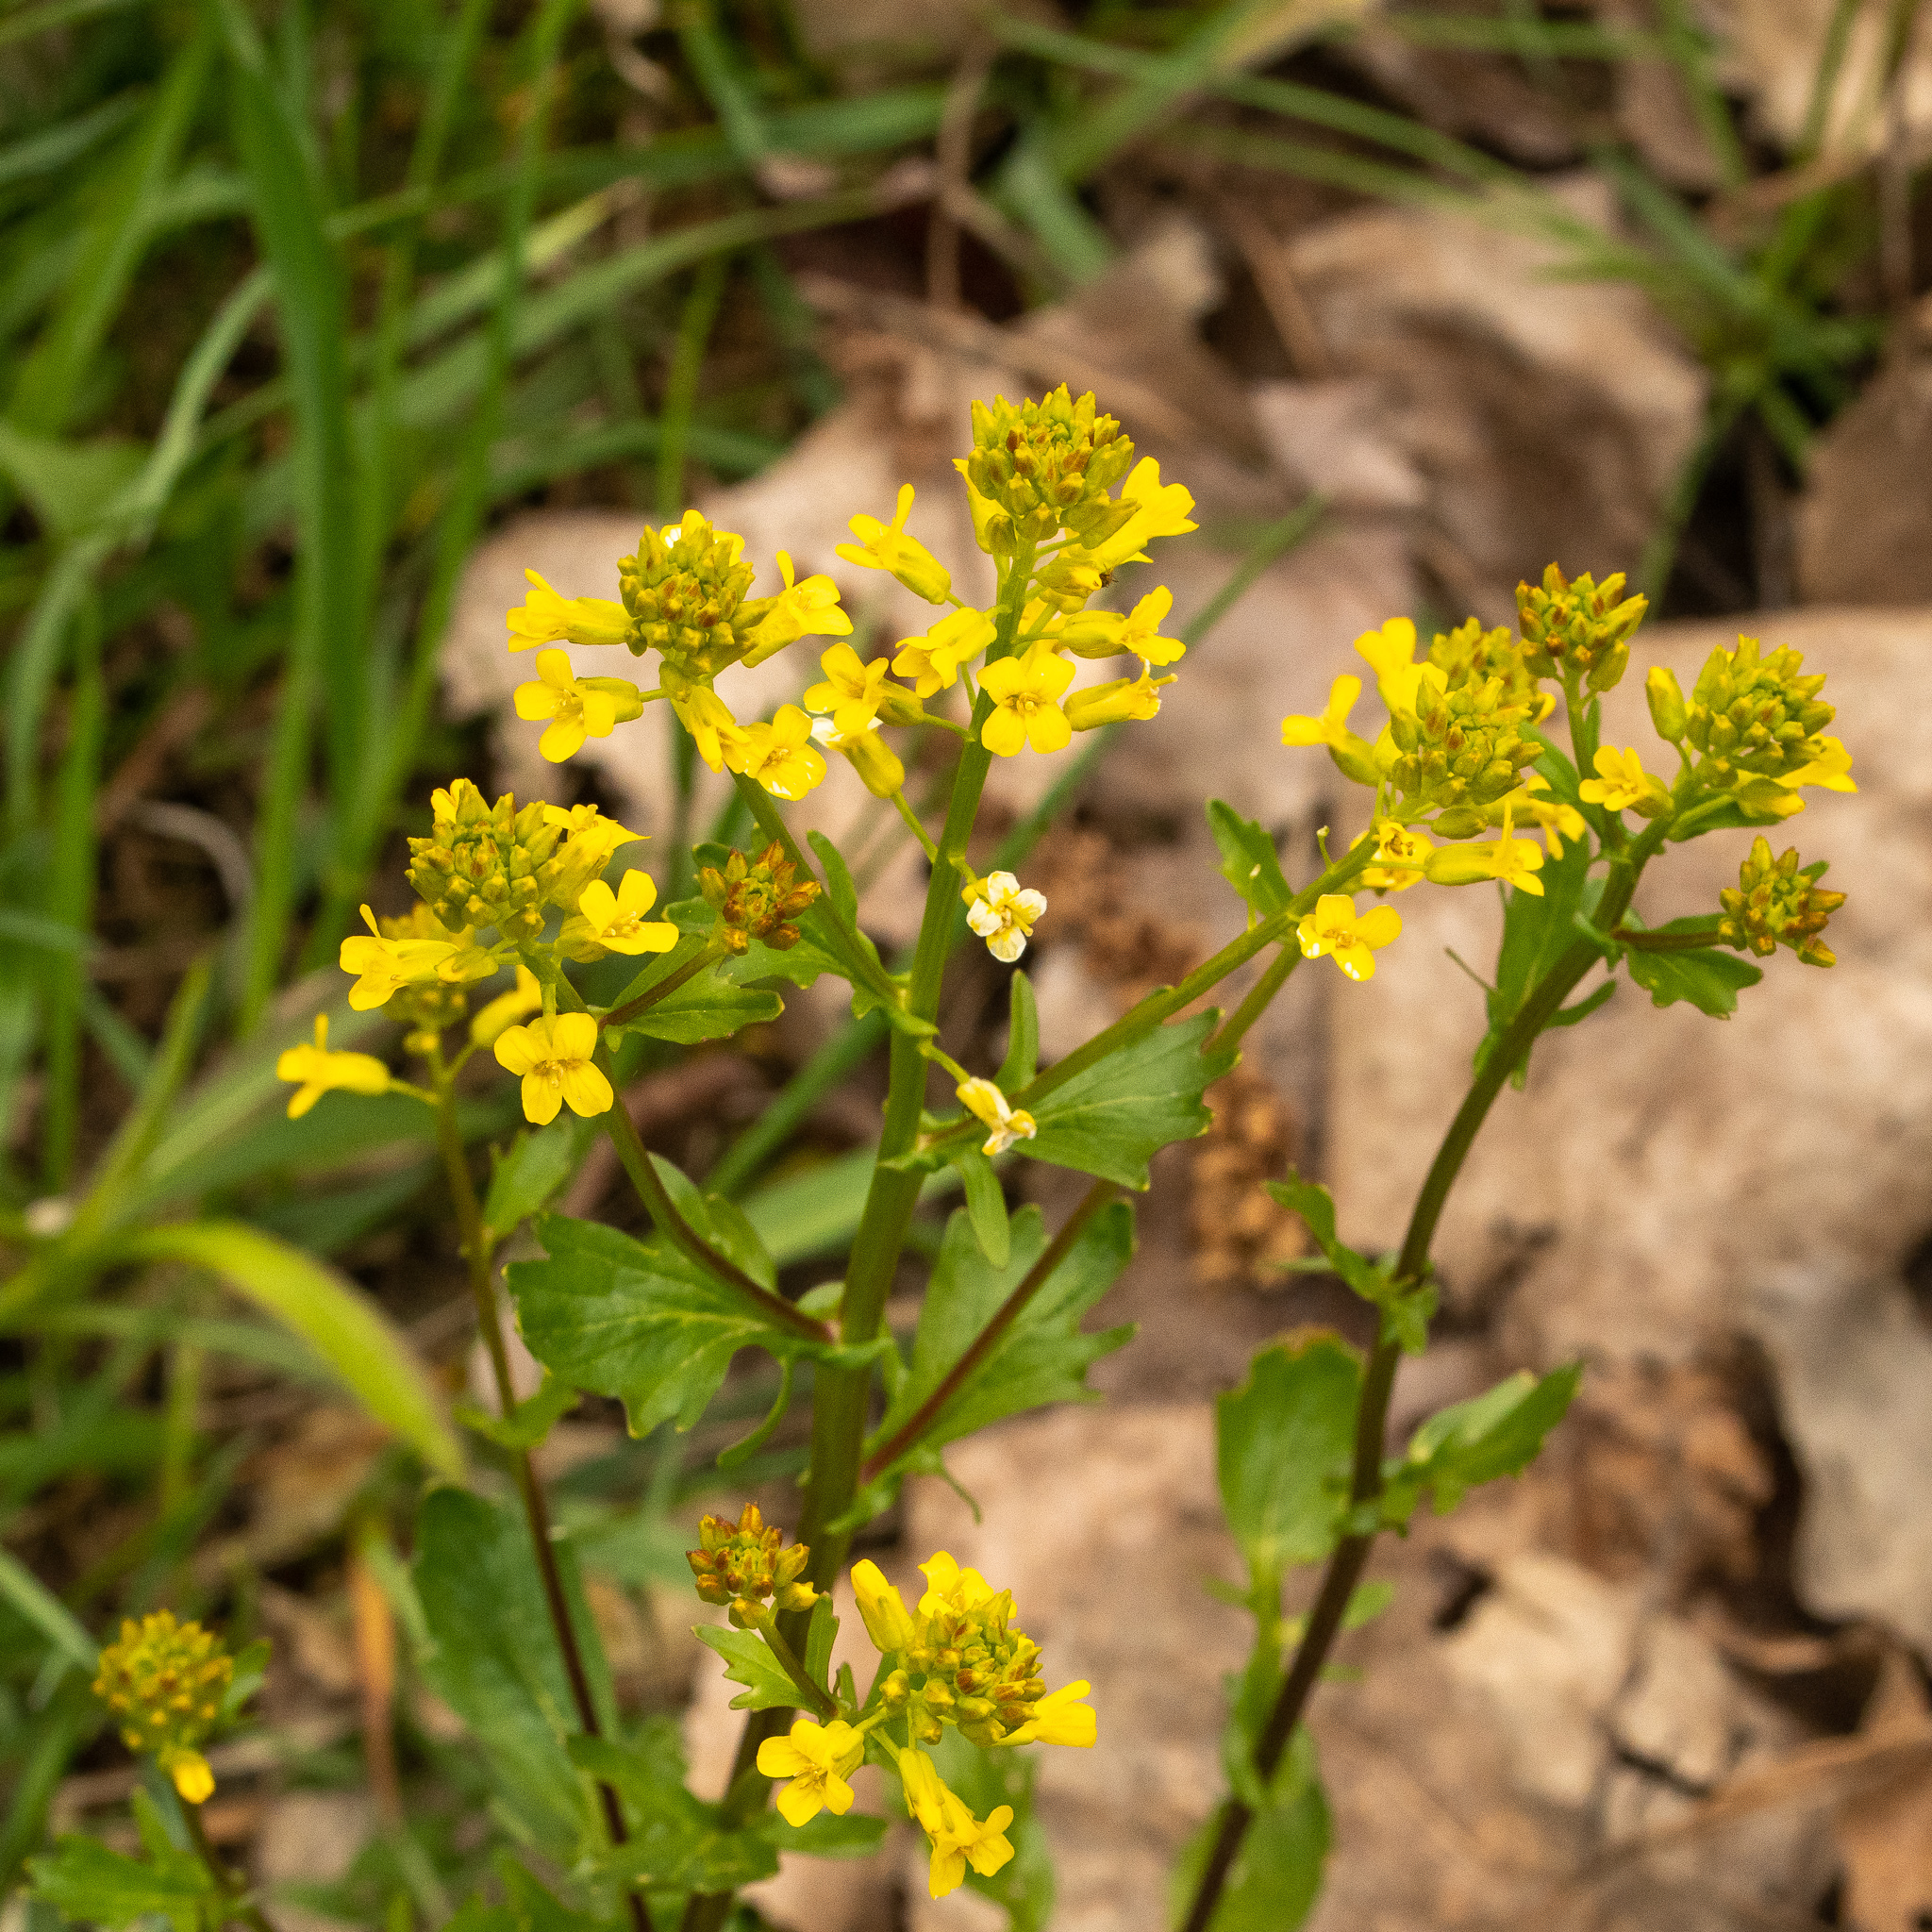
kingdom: Plantae
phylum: Tracheophyta
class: Magnoliopsida
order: Brassicales
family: Brassicaceae
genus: Barbarea
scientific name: Barbarea vulgaris
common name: Cressy-greens
